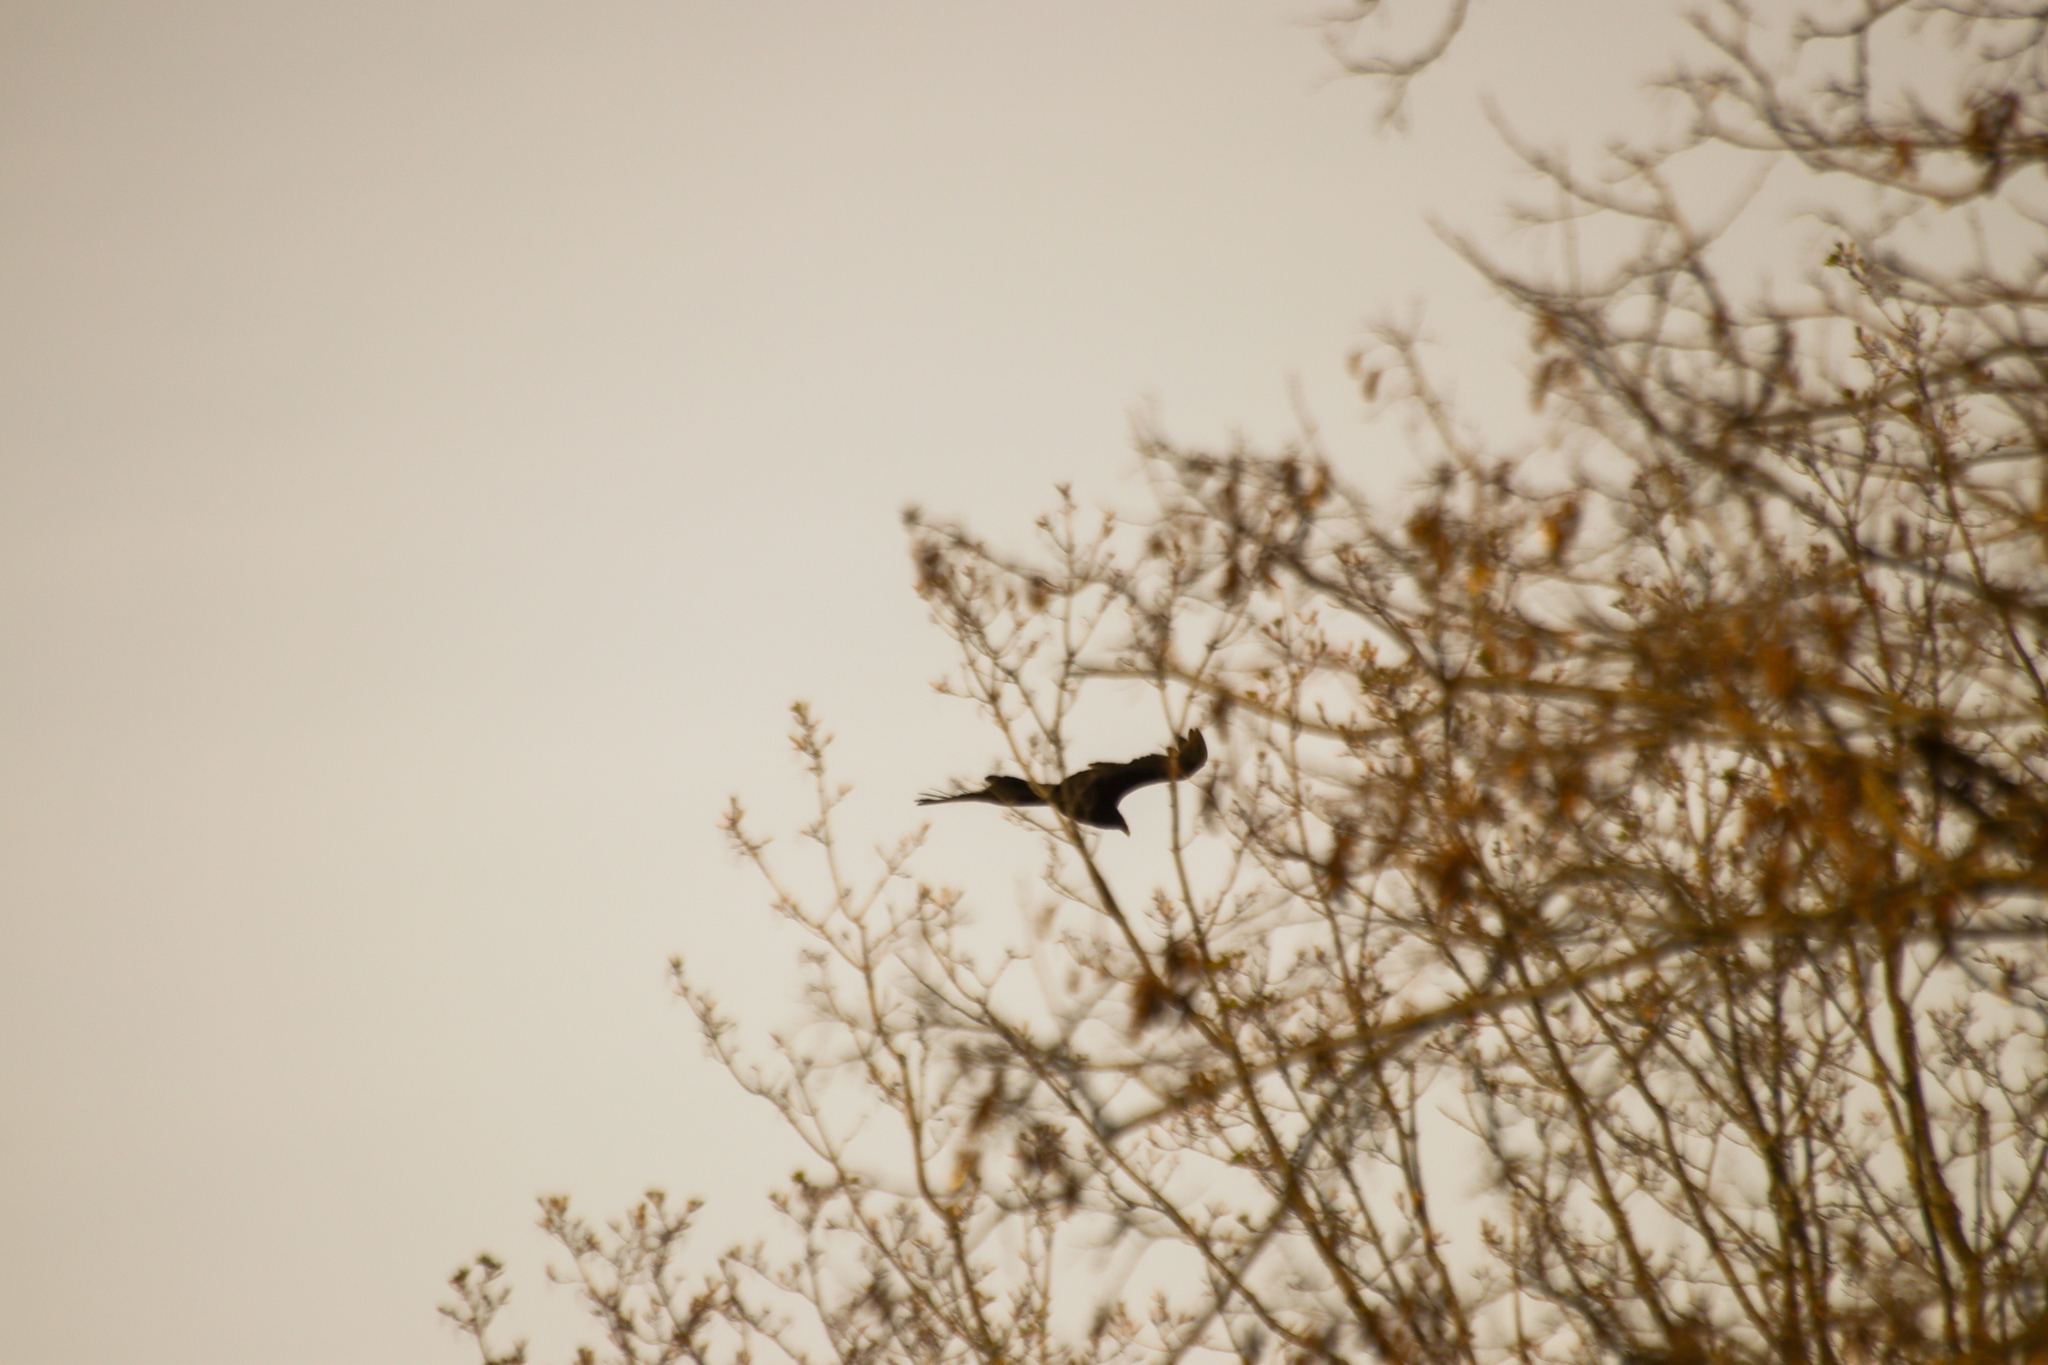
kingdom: Animalia
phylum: Chordata
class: Aves
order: Accipitriformes
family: Cathartidae
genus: Cathartes
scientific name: Cathartes aura
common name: Turkey vulture
